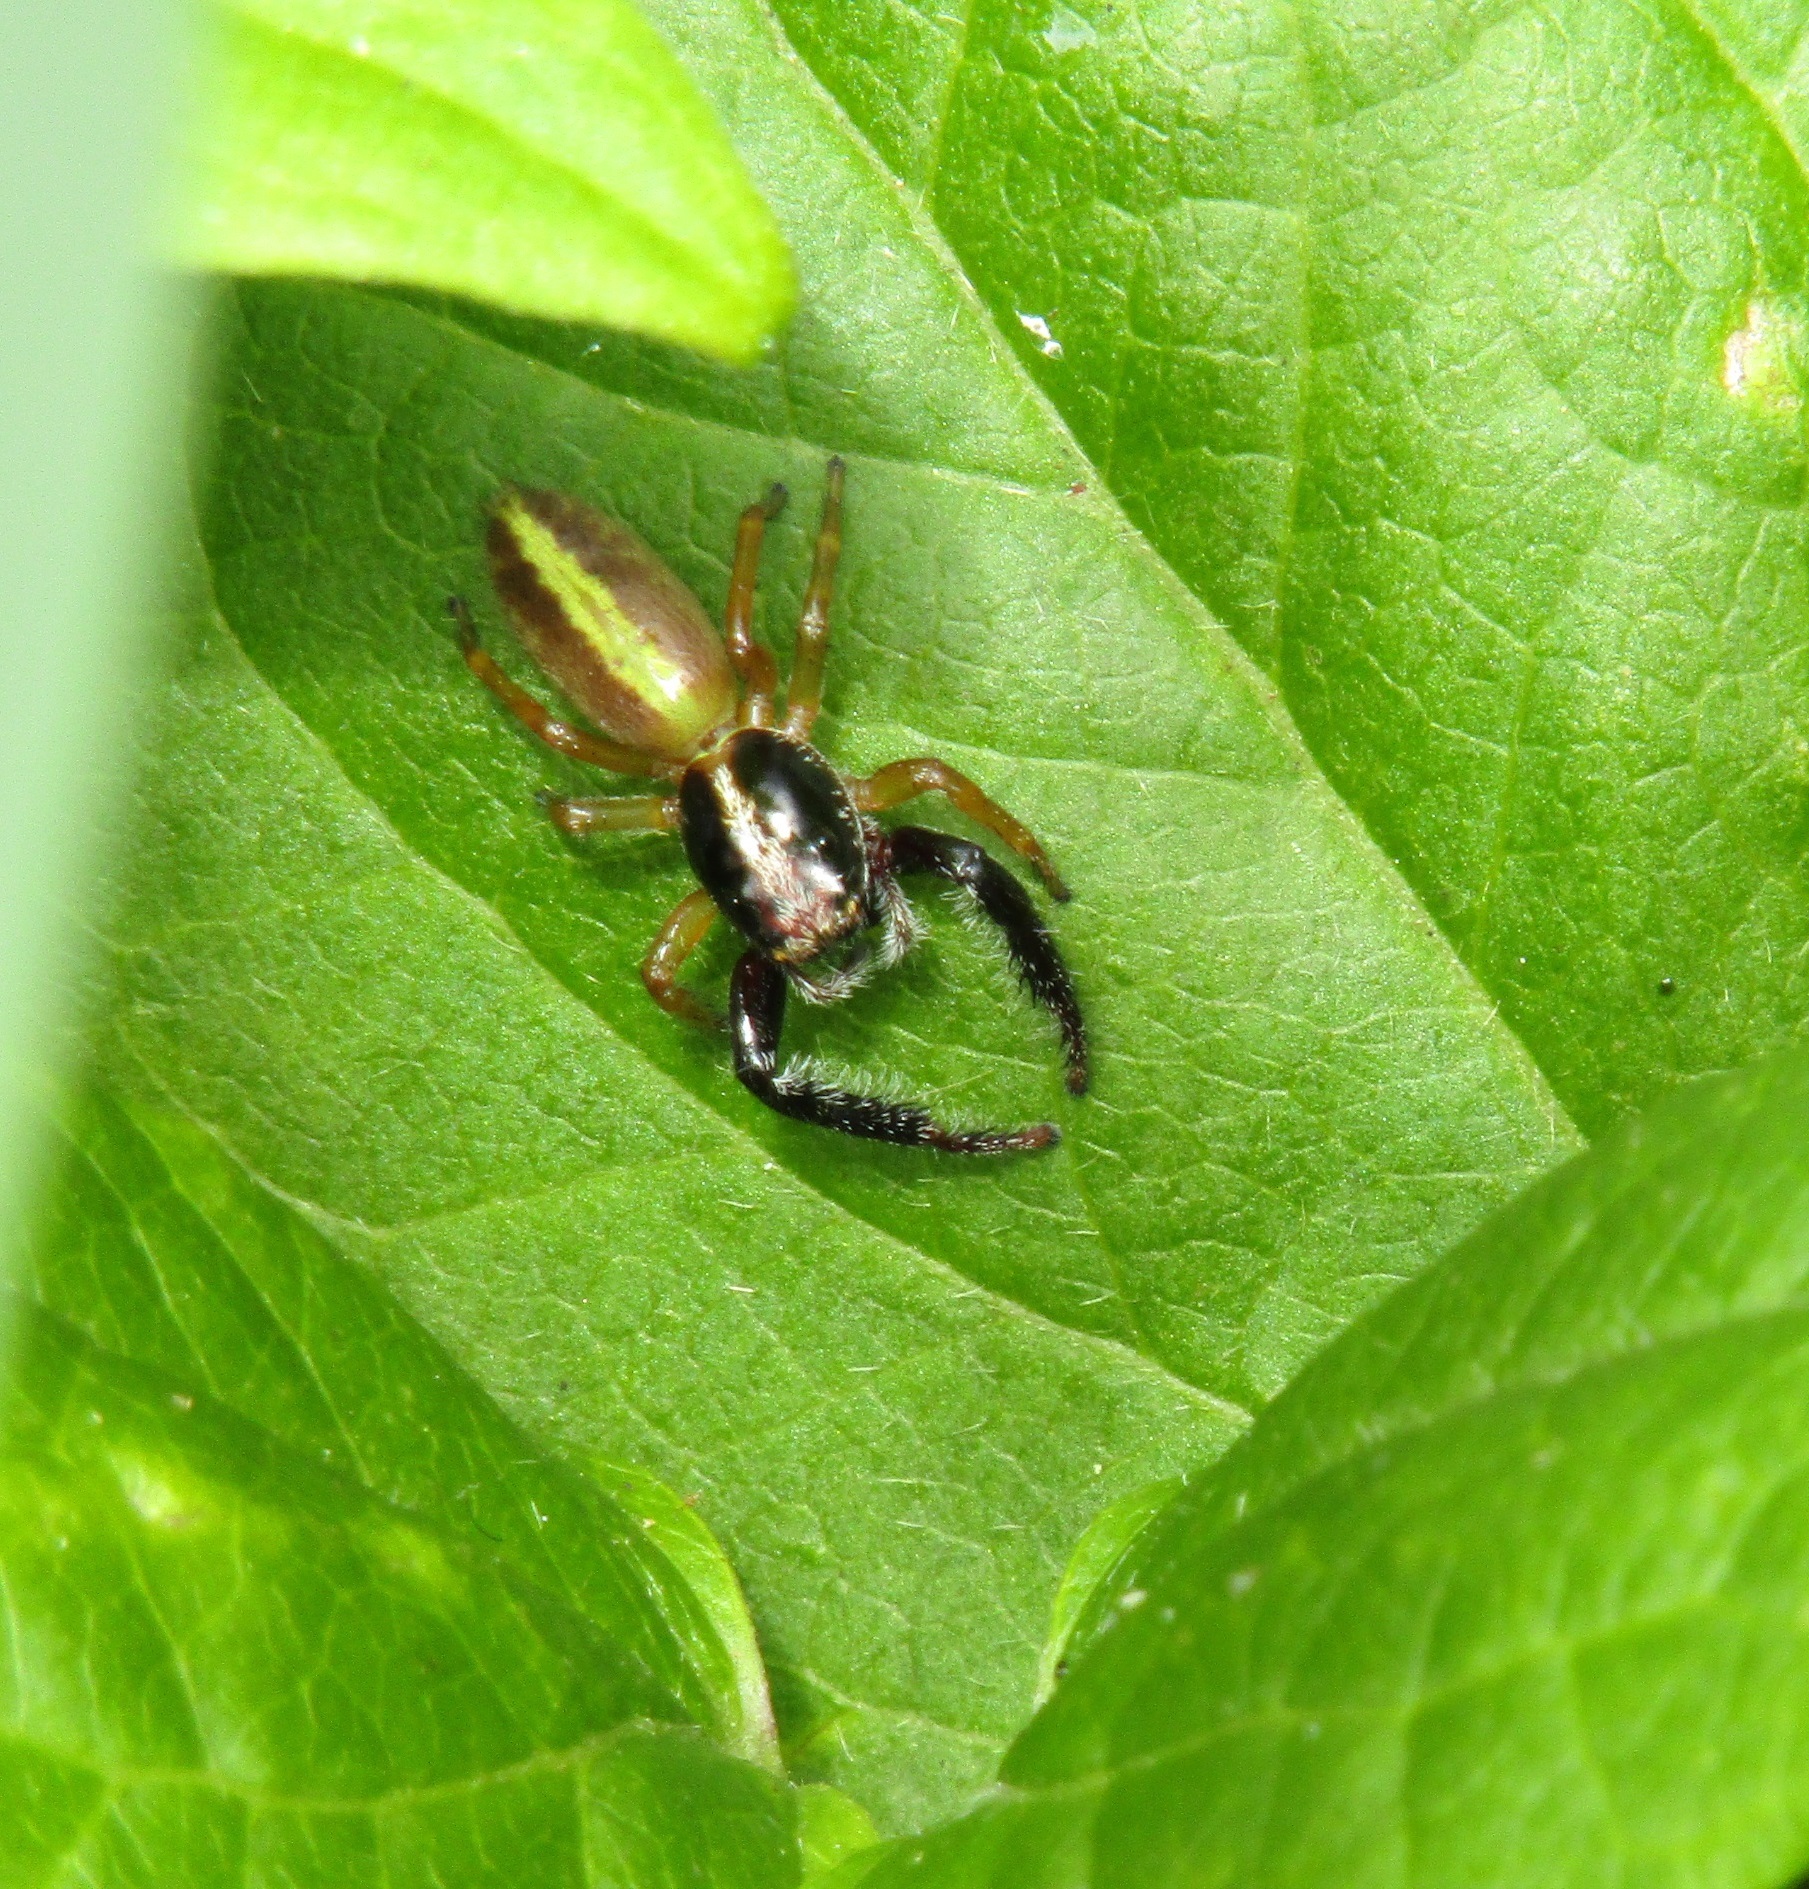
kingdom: Animalia
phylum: Arthropoda
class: Arachnida
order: Araneae
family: Salticidae
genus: Trite
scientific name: Trite planiceps
